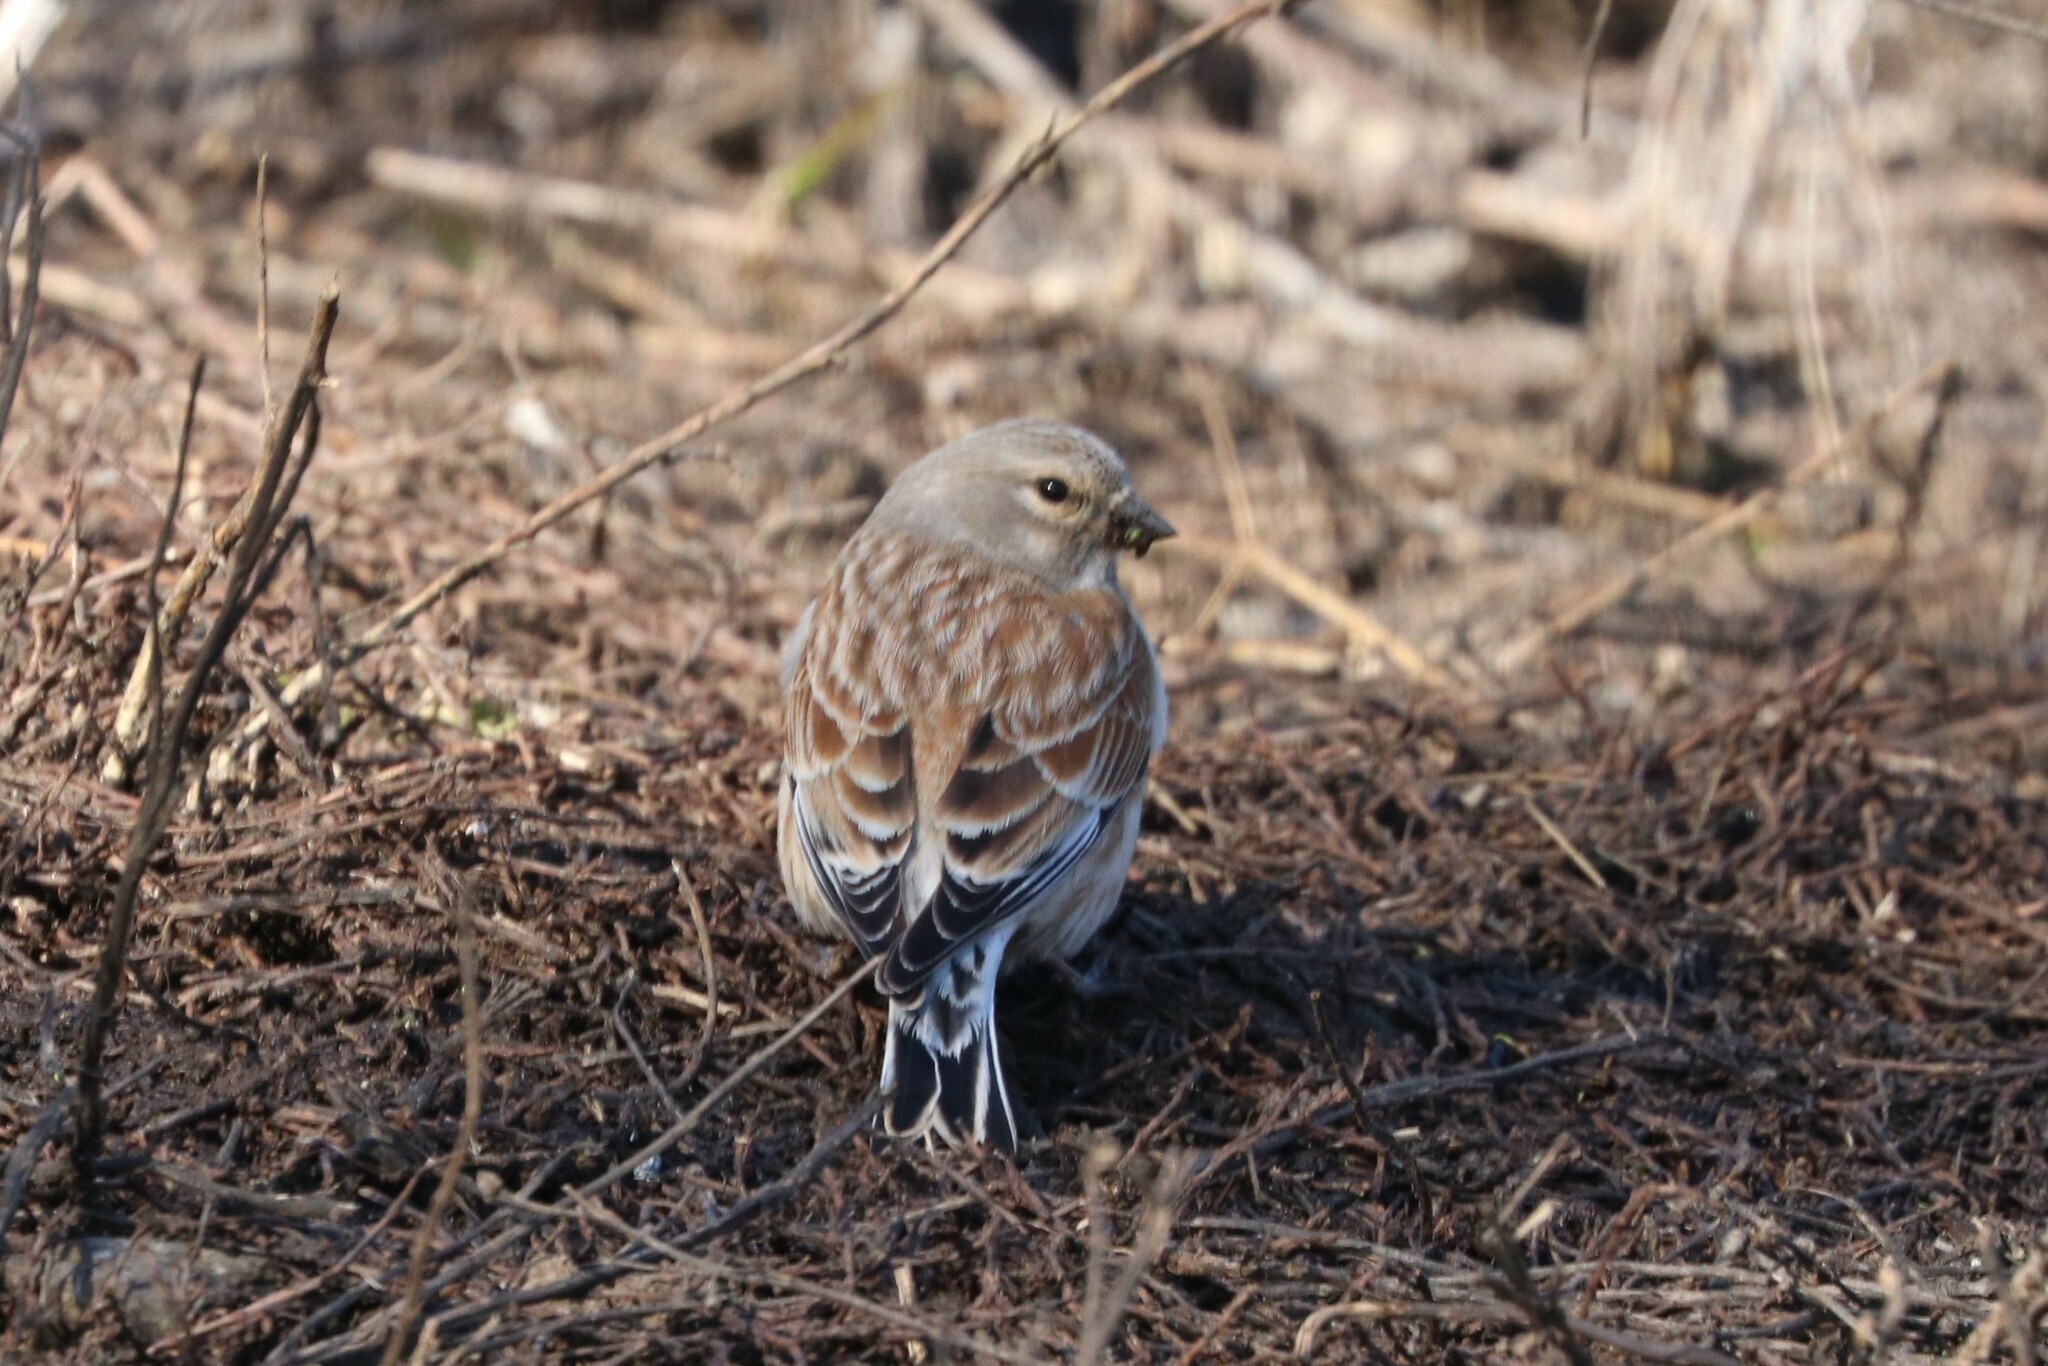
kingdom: Animalia
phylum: Chordata
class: Aves
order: Passeriformes
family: Fringillidae
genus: Linaria
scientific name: Linaria cannabina
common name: Common linnet
